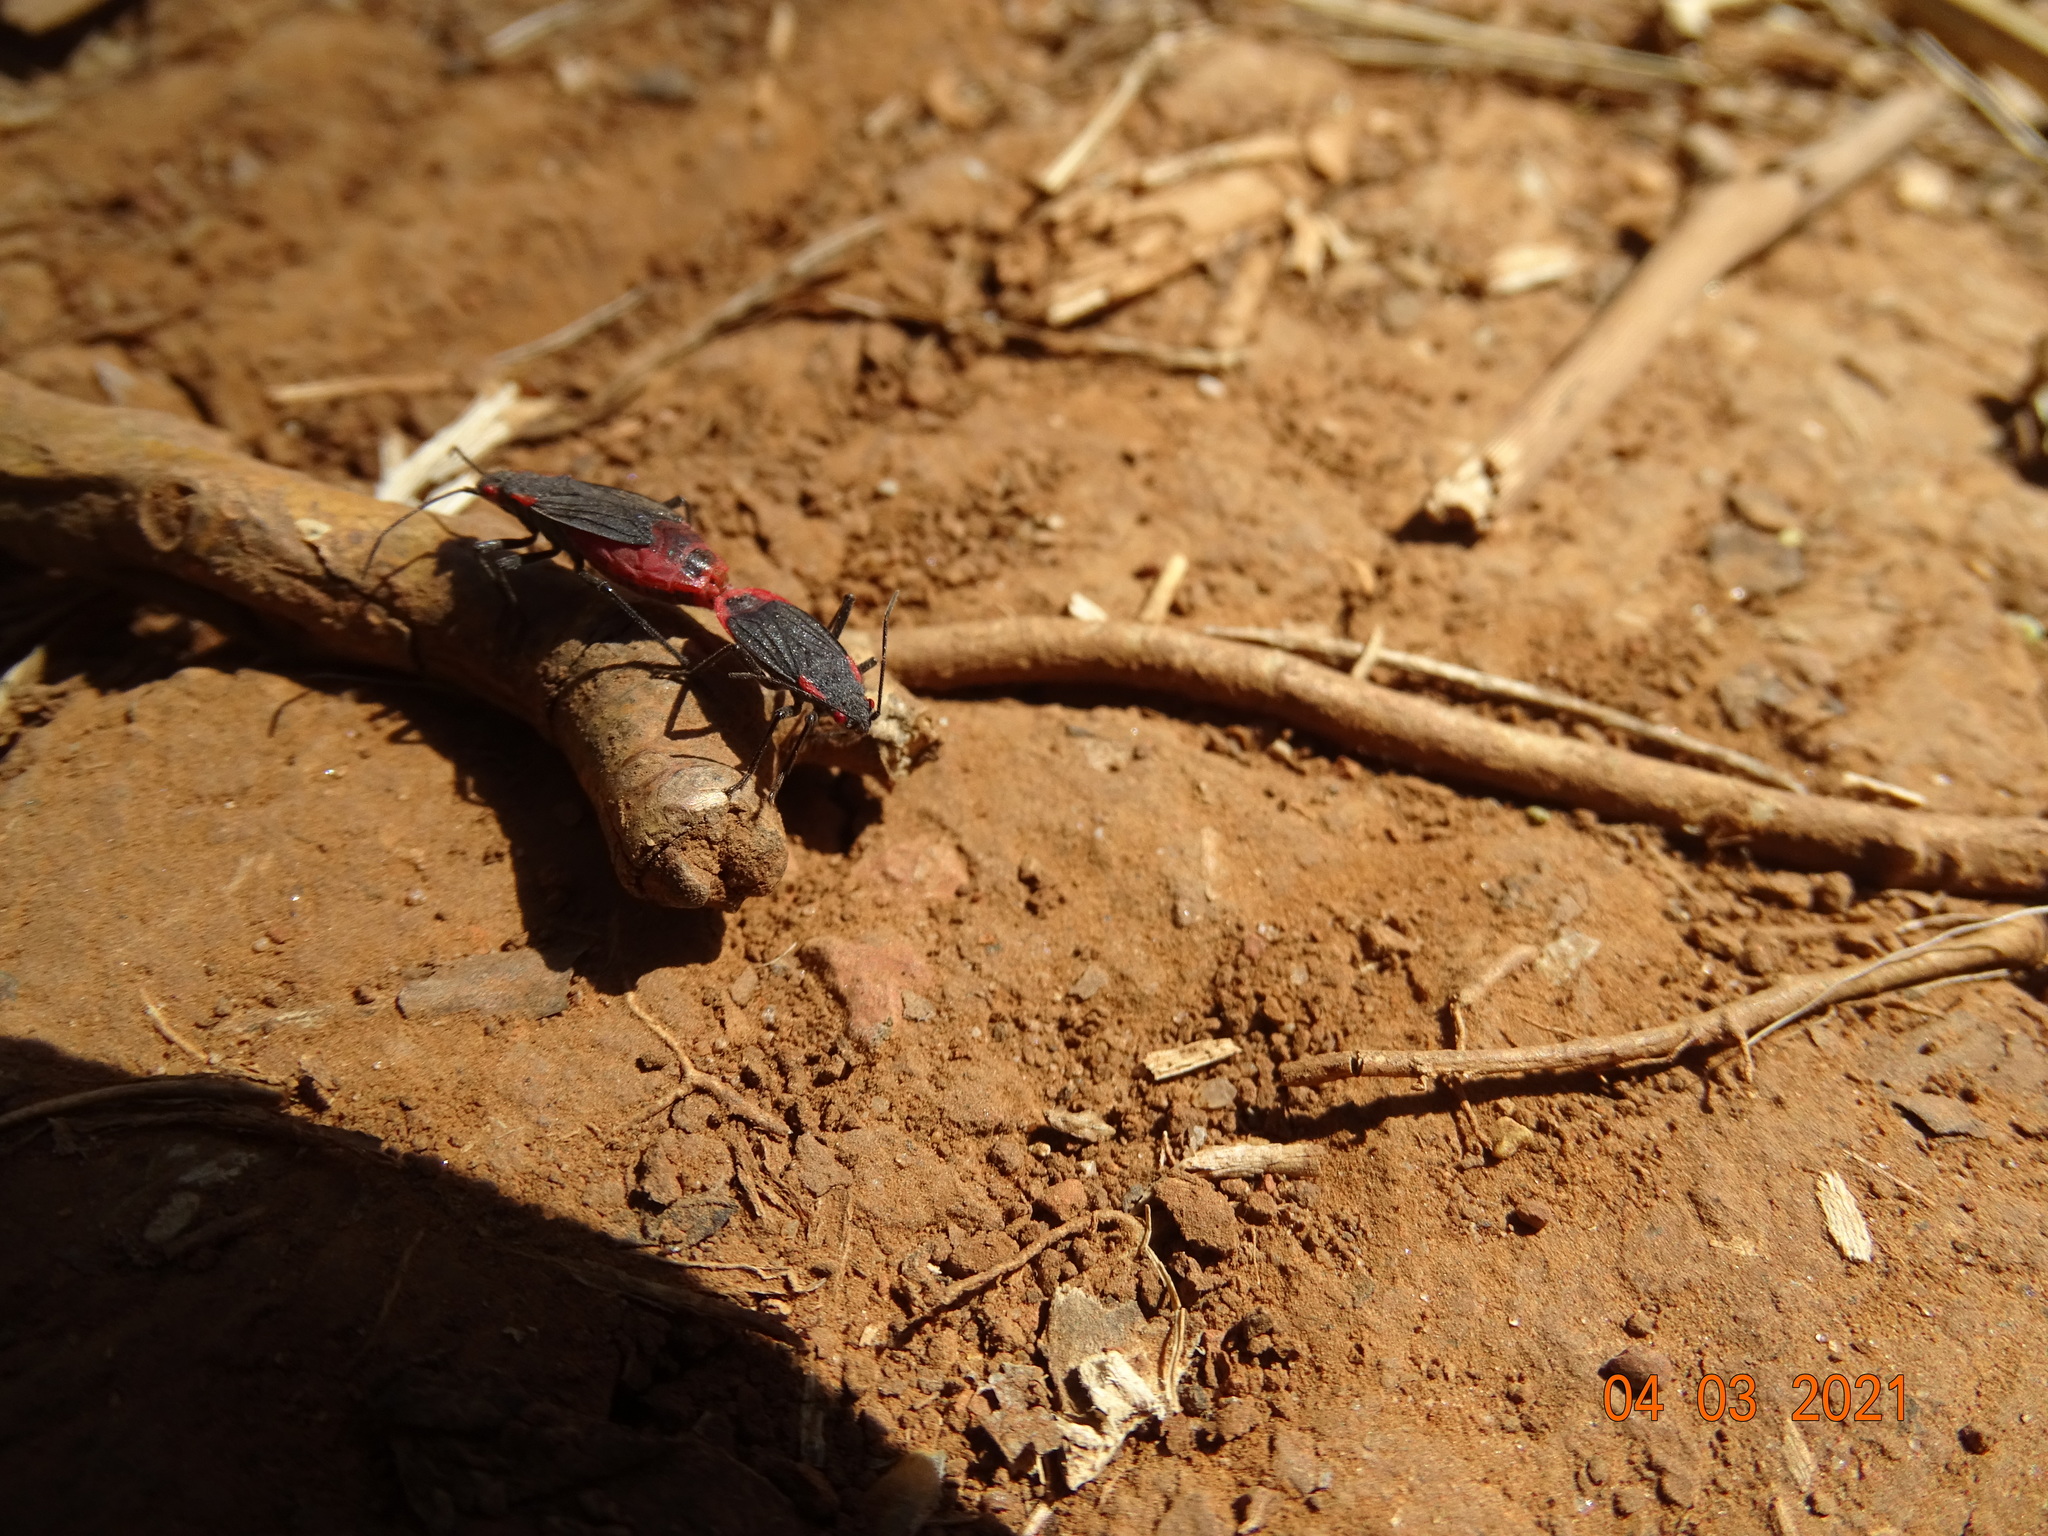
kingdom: Animalia
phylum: Arthropoda
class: Insecta
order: Hemiptera
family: Rhopalidae
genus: Jadera
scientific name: Jadera haematoloma
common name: Red-shouldered bug
